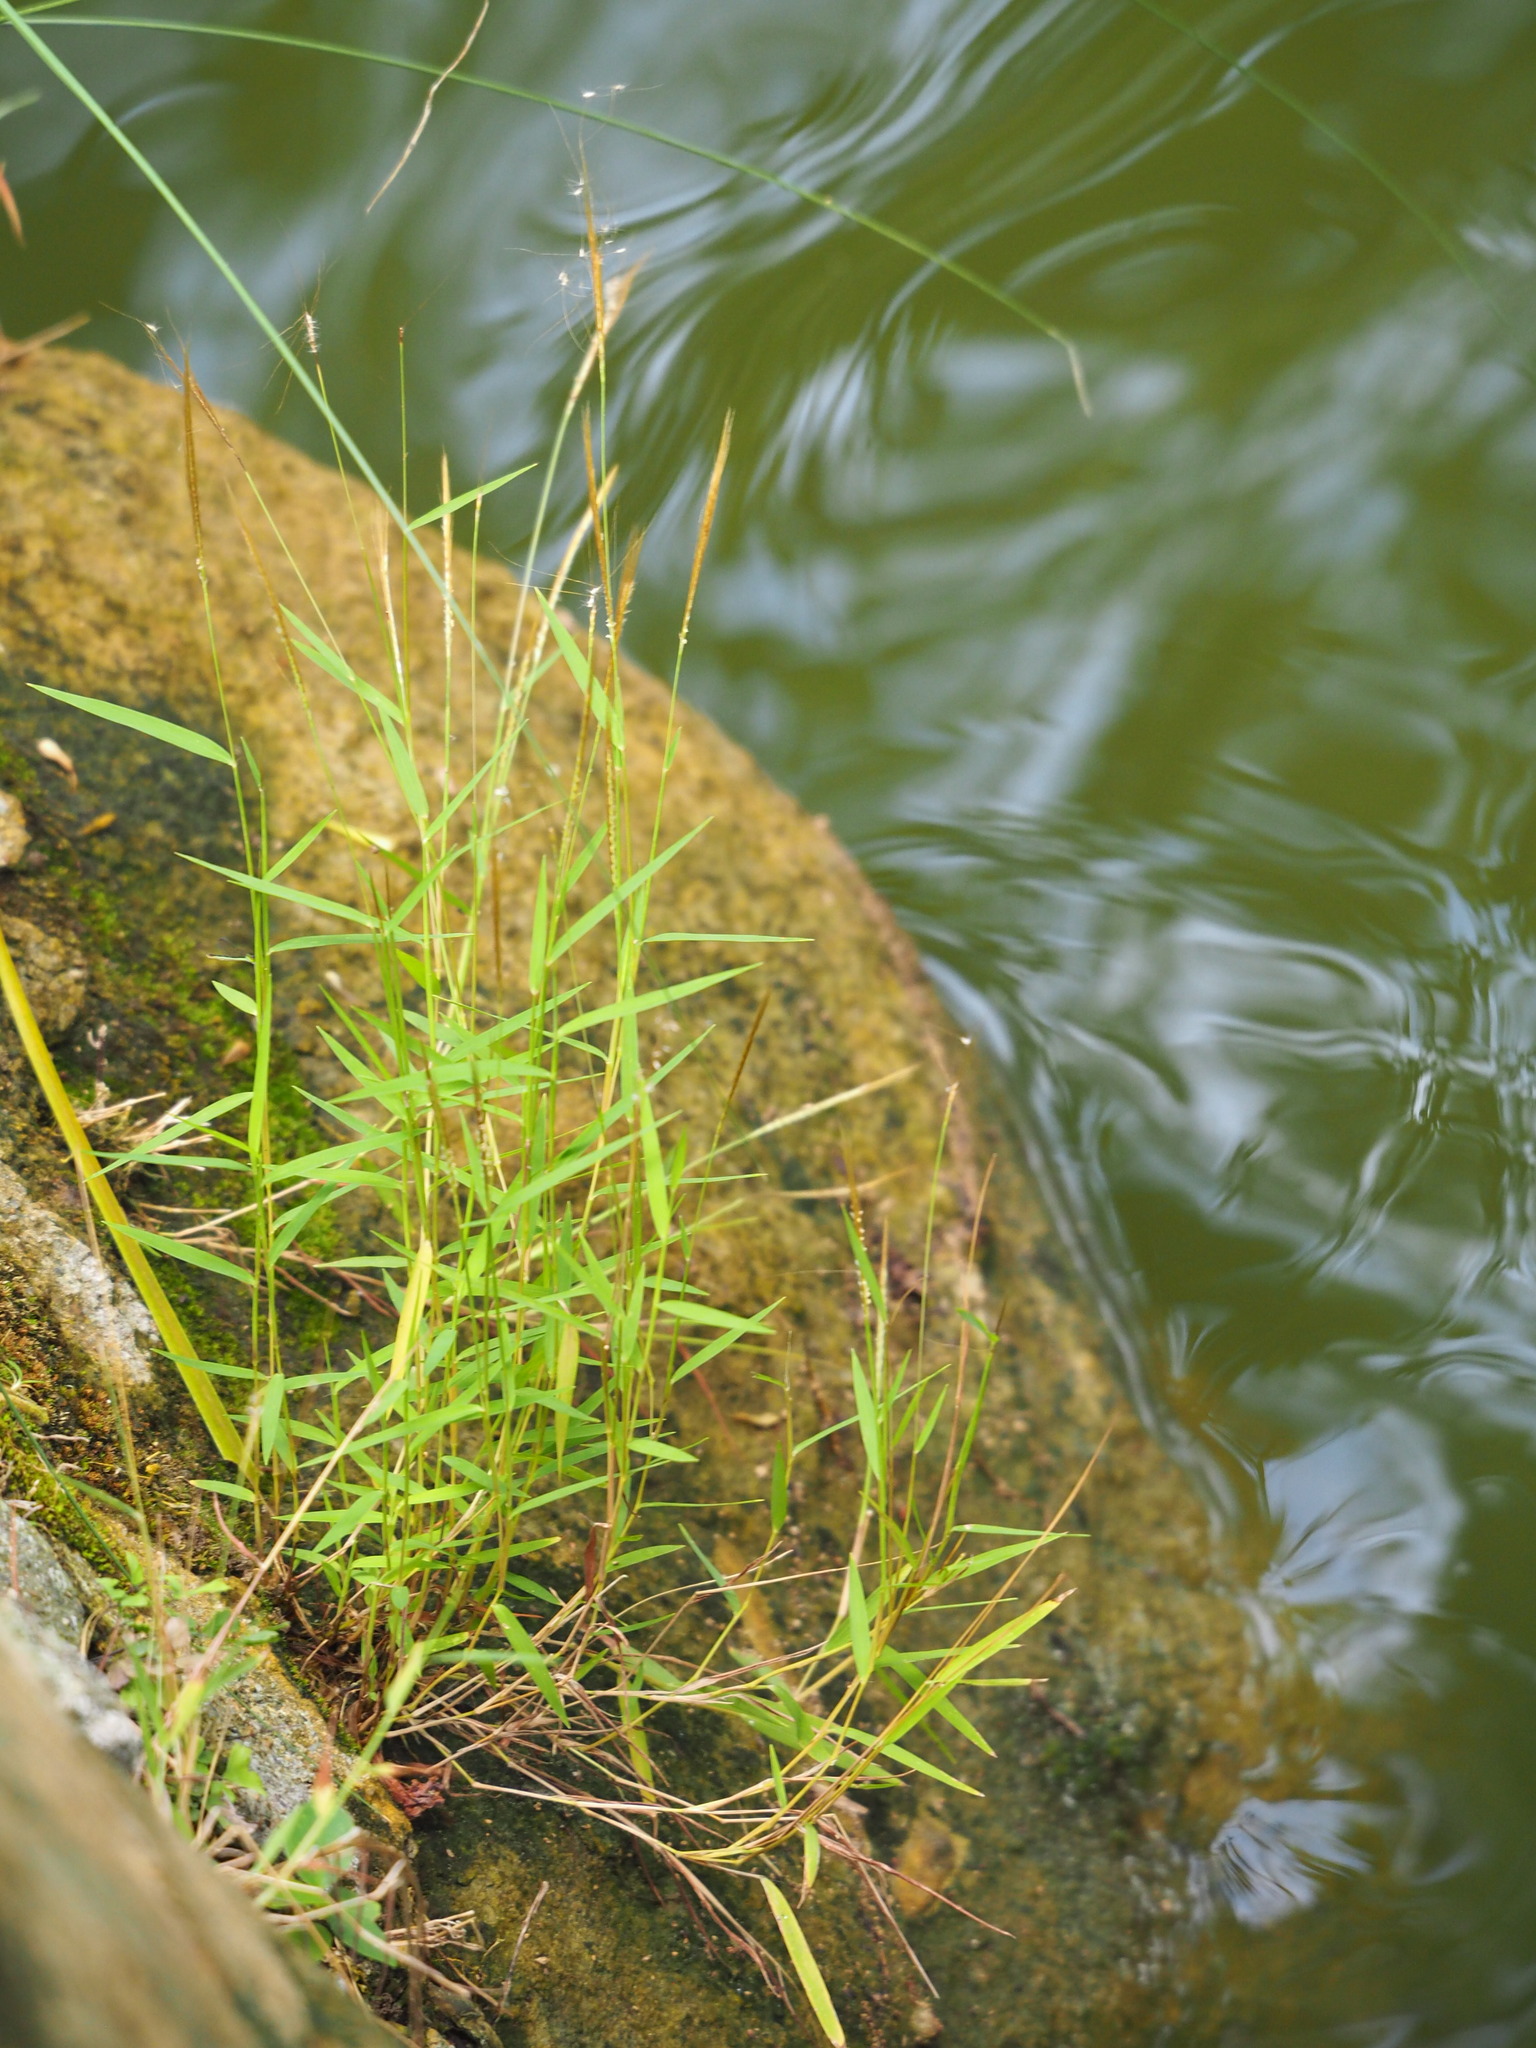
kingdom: Plantae
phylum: Tracheophyta
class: Liliopsida
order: Poales
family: Poaceae
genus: Pogonatherum
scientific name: Pogonatherum crinitum
